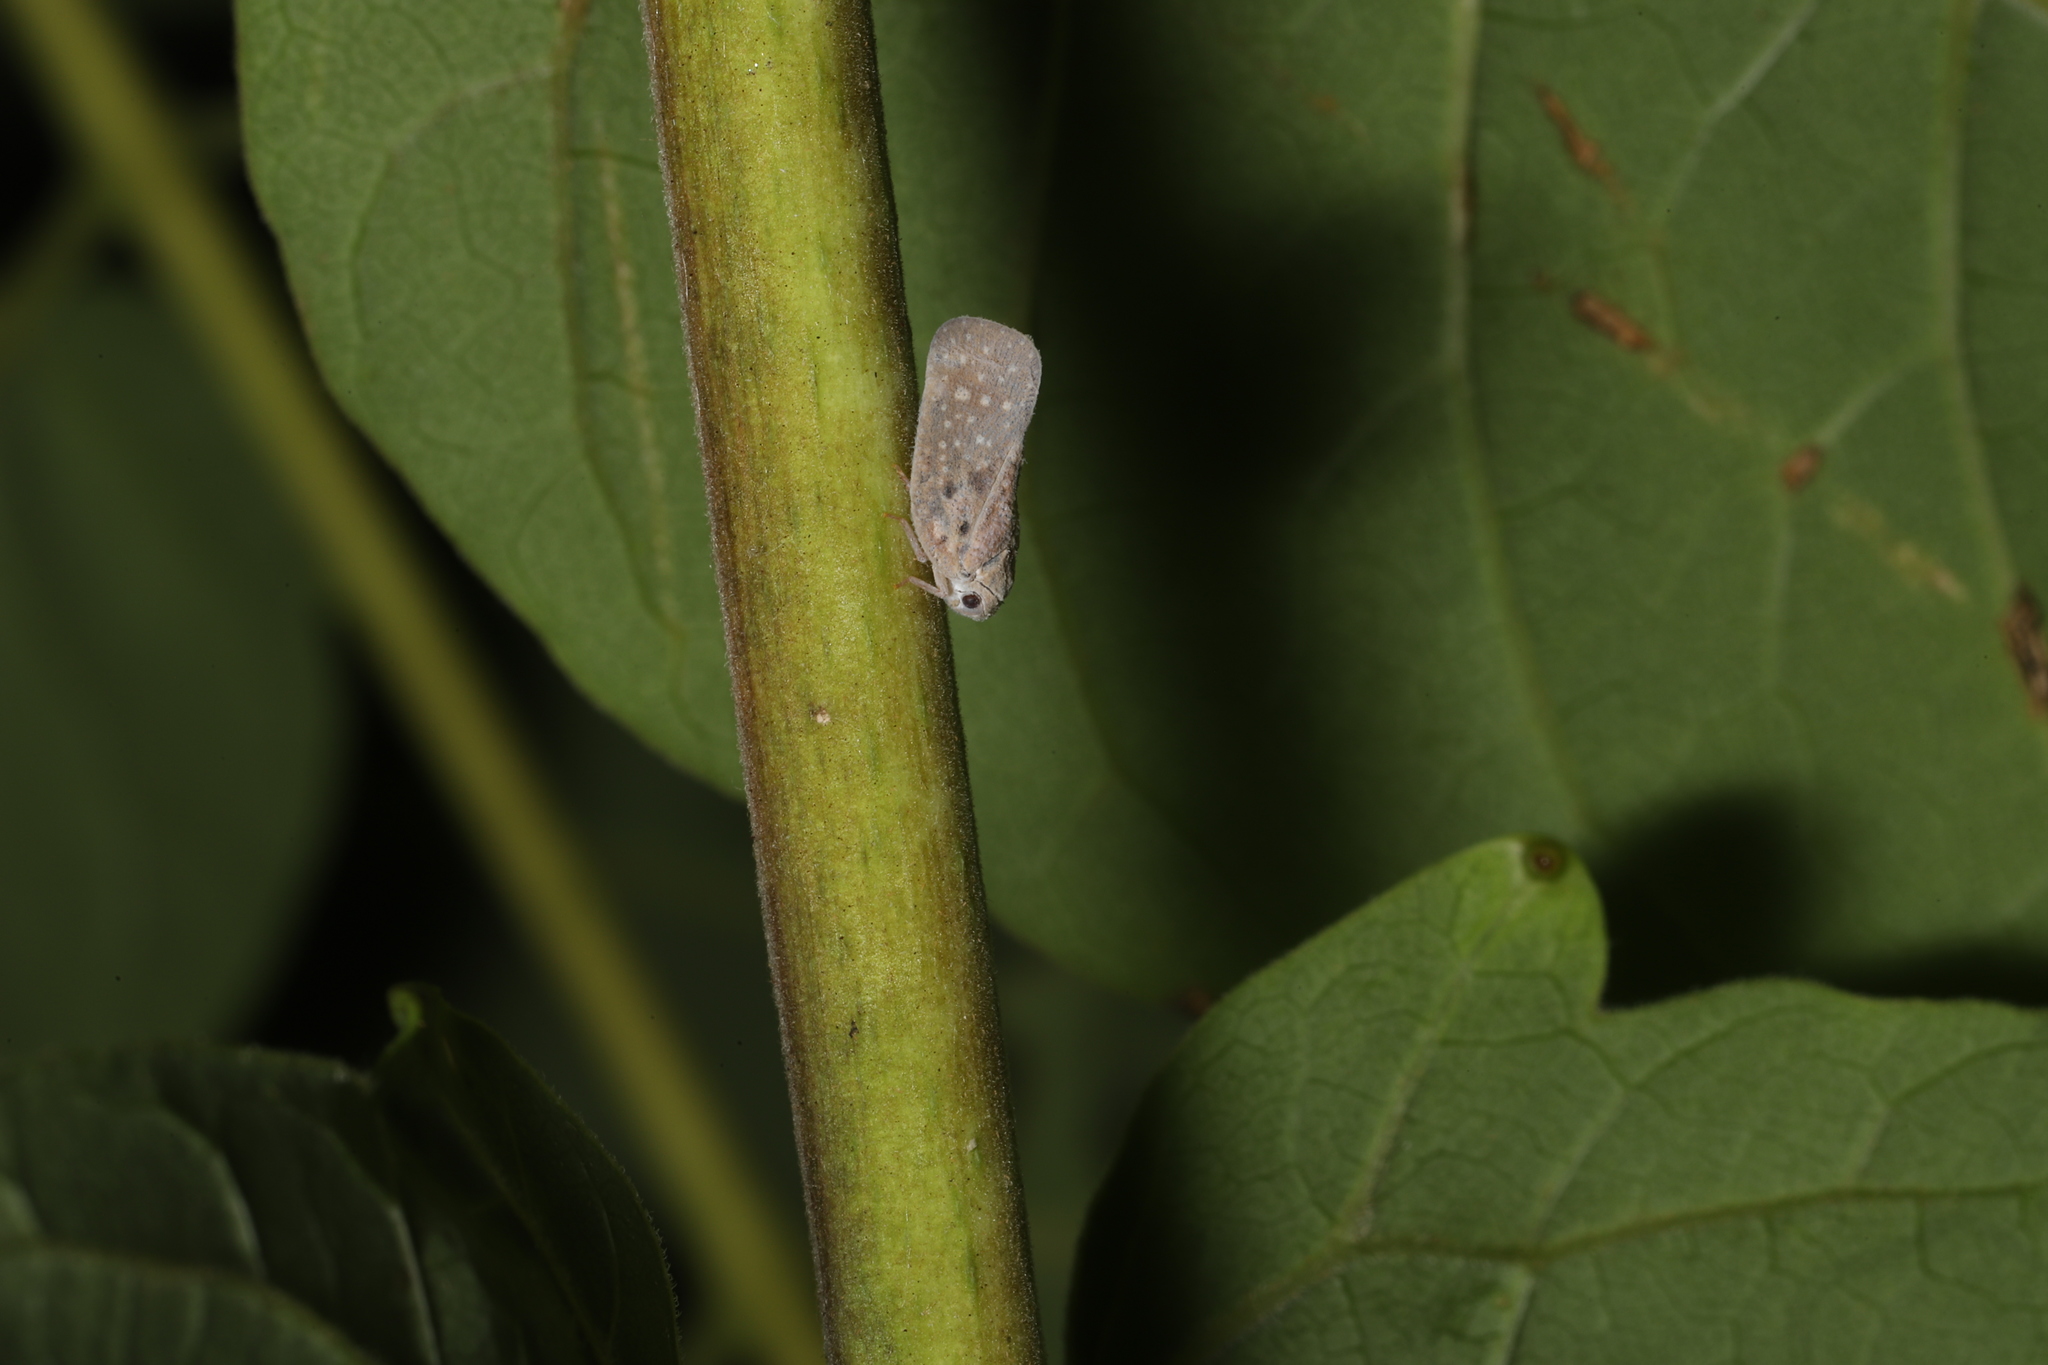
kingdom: Animalia
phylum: Arthropoda
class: Insecta
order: Hemiptera
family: Flatidae
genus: Metcalfa
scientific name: Metcalfa pruinosa
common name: Citrus flatid planthopper
